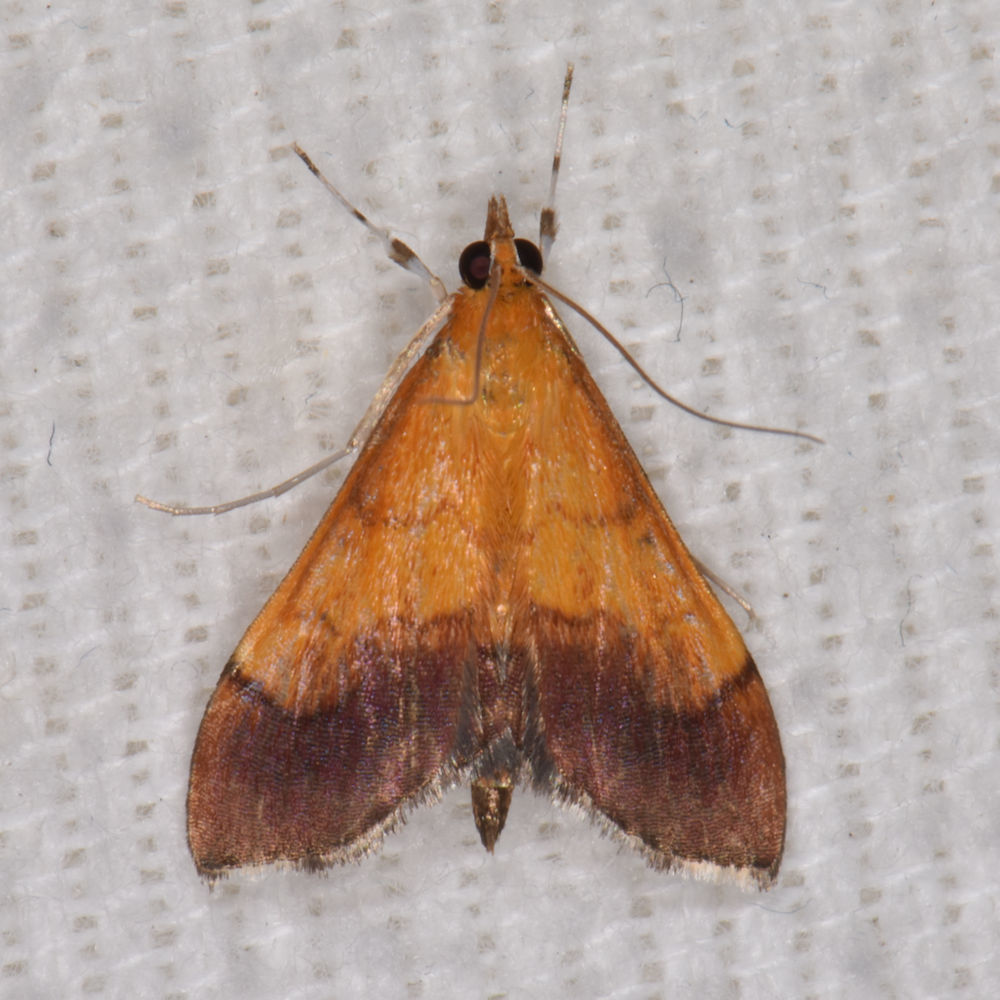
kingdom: Animalia
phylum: Arthropoda
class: Insecta
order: Lepidoptera
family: Crambidae
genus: Pyrausta
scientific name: Pyrausta bicoloralis
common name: Bicolored pyrausta moth
